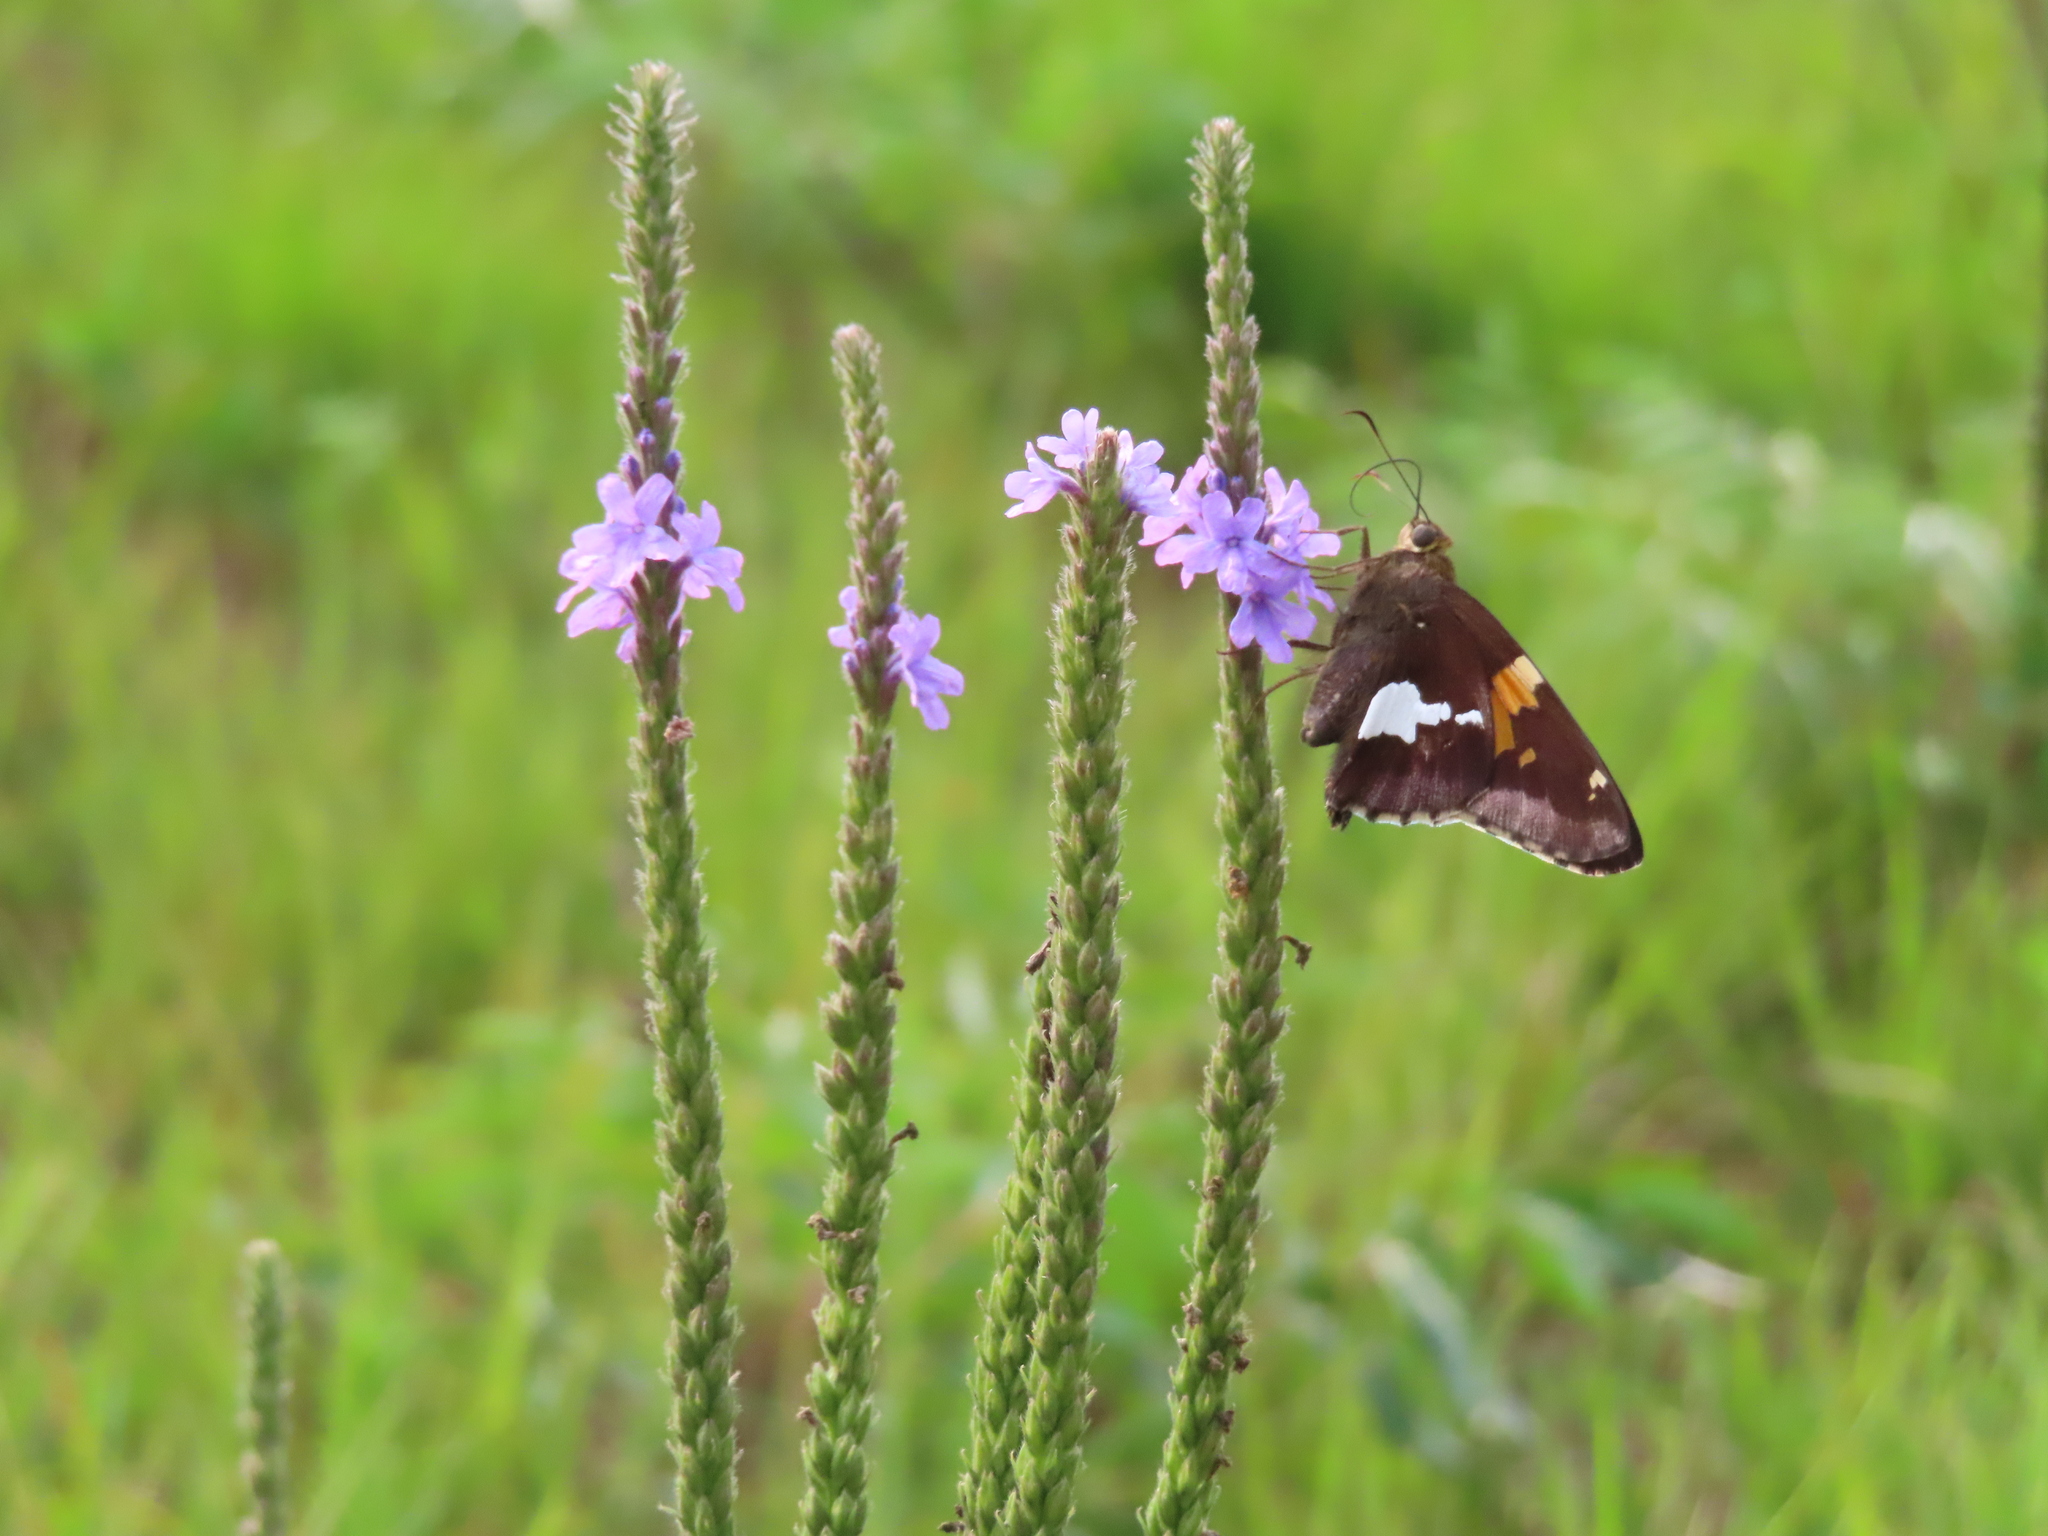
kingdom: Animalia
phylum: Arthropoda
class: Insecta
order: Lepidoptera
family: Hesperiidae
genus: Epargyreus
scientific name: Epargyreus clarus
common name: Silver-spotted skipper
